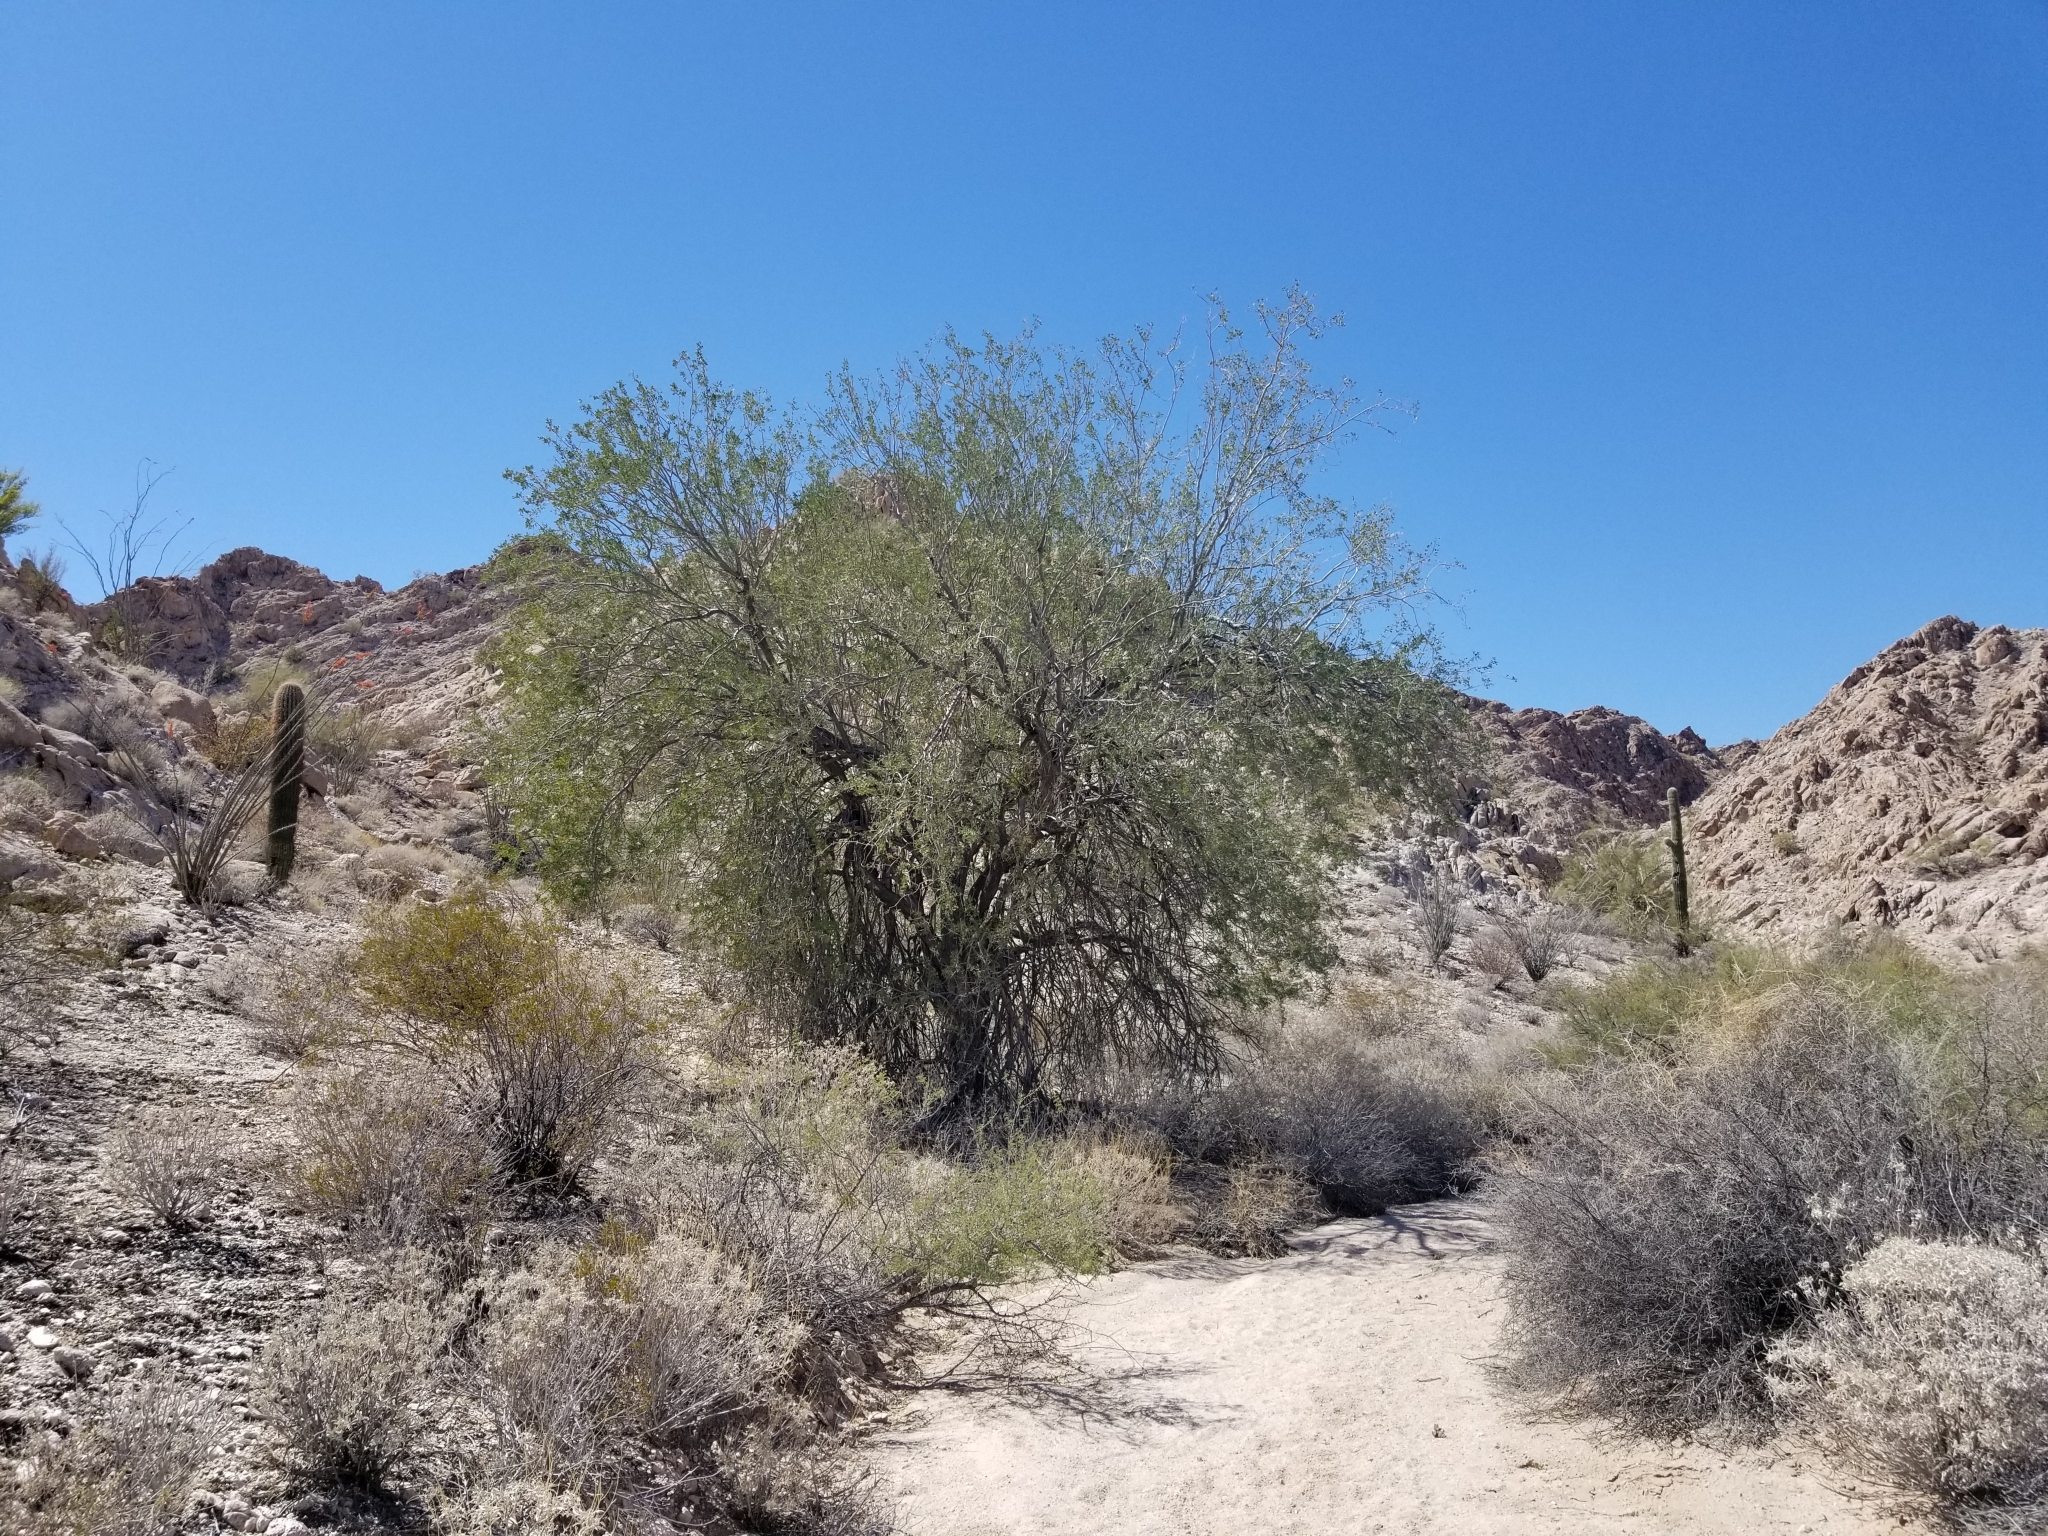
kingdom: Plantae
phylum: Tracheophyta
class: Magnoliopsida
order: Fabales
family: Fabaceae
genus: Olneya
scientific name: Olneya tesota
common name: Desert ironwood
